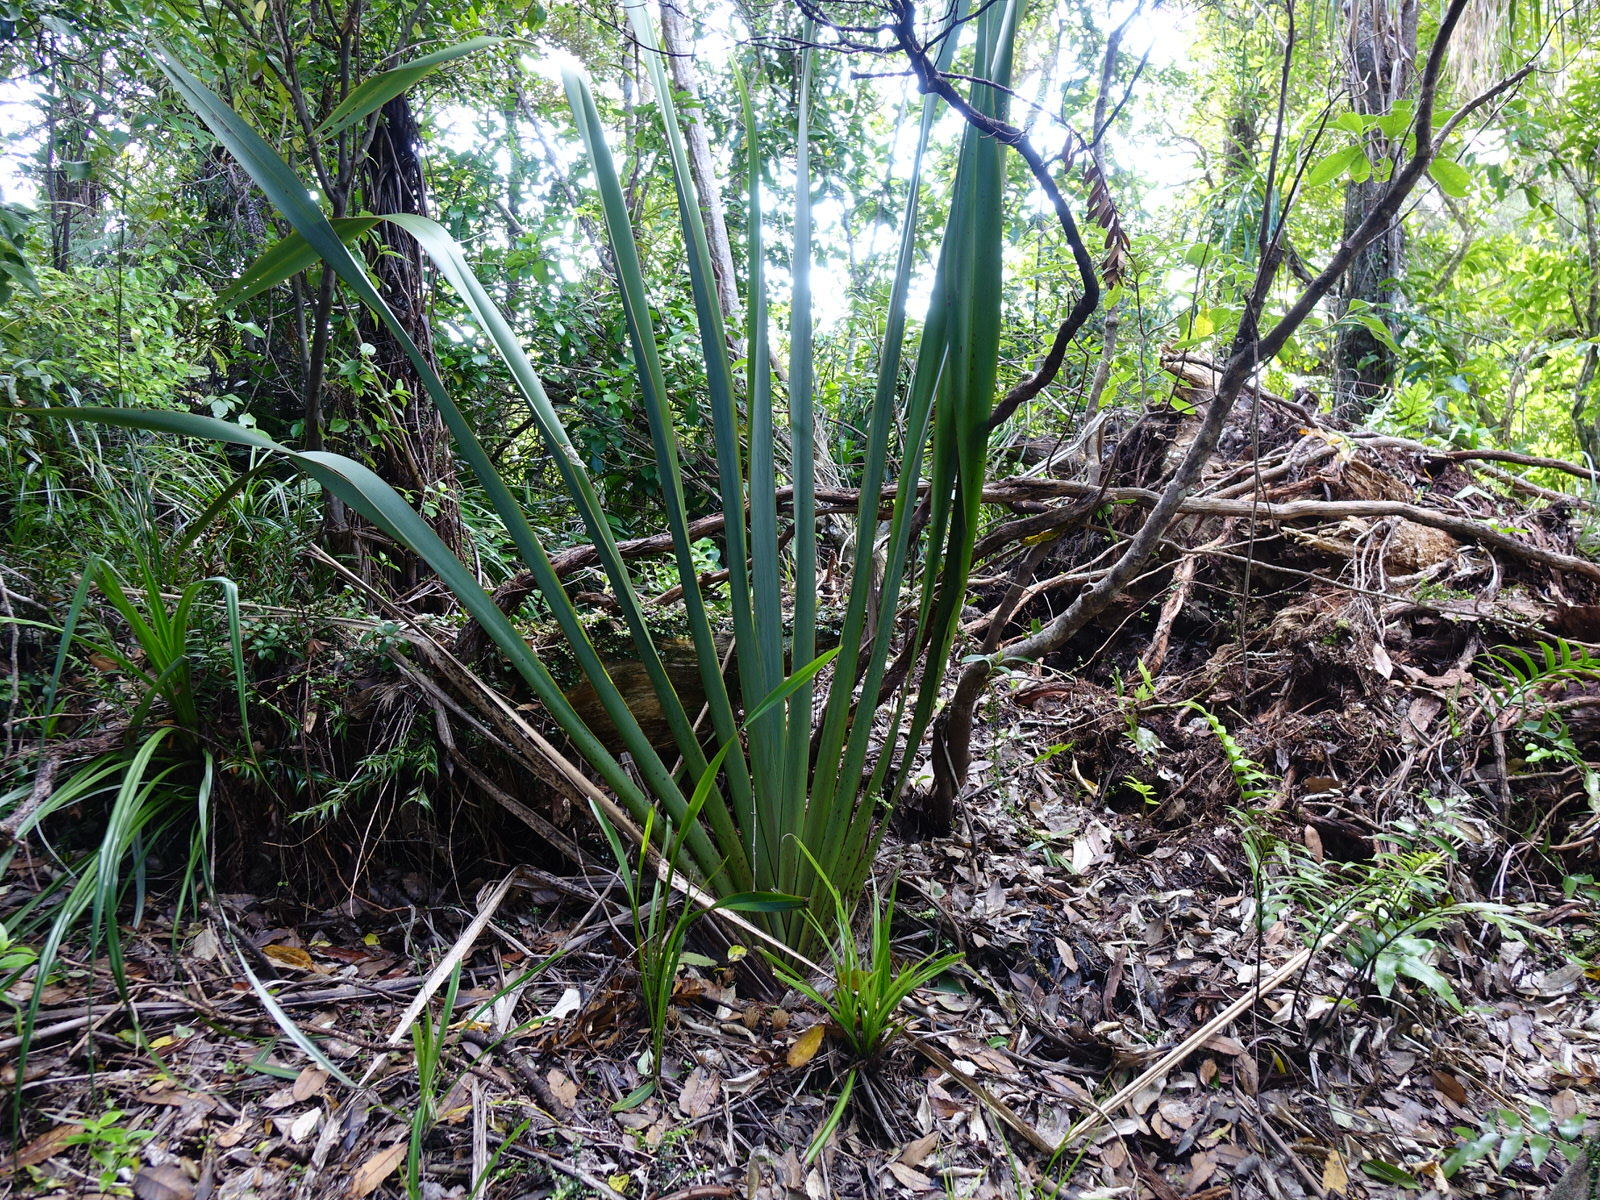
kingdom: Plantae
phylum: Tracheophyta
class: Liliopsida
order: Asparagales
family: Asphodelaceae
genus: Phormium
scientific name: Phormium tenax
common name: New zealand flax
